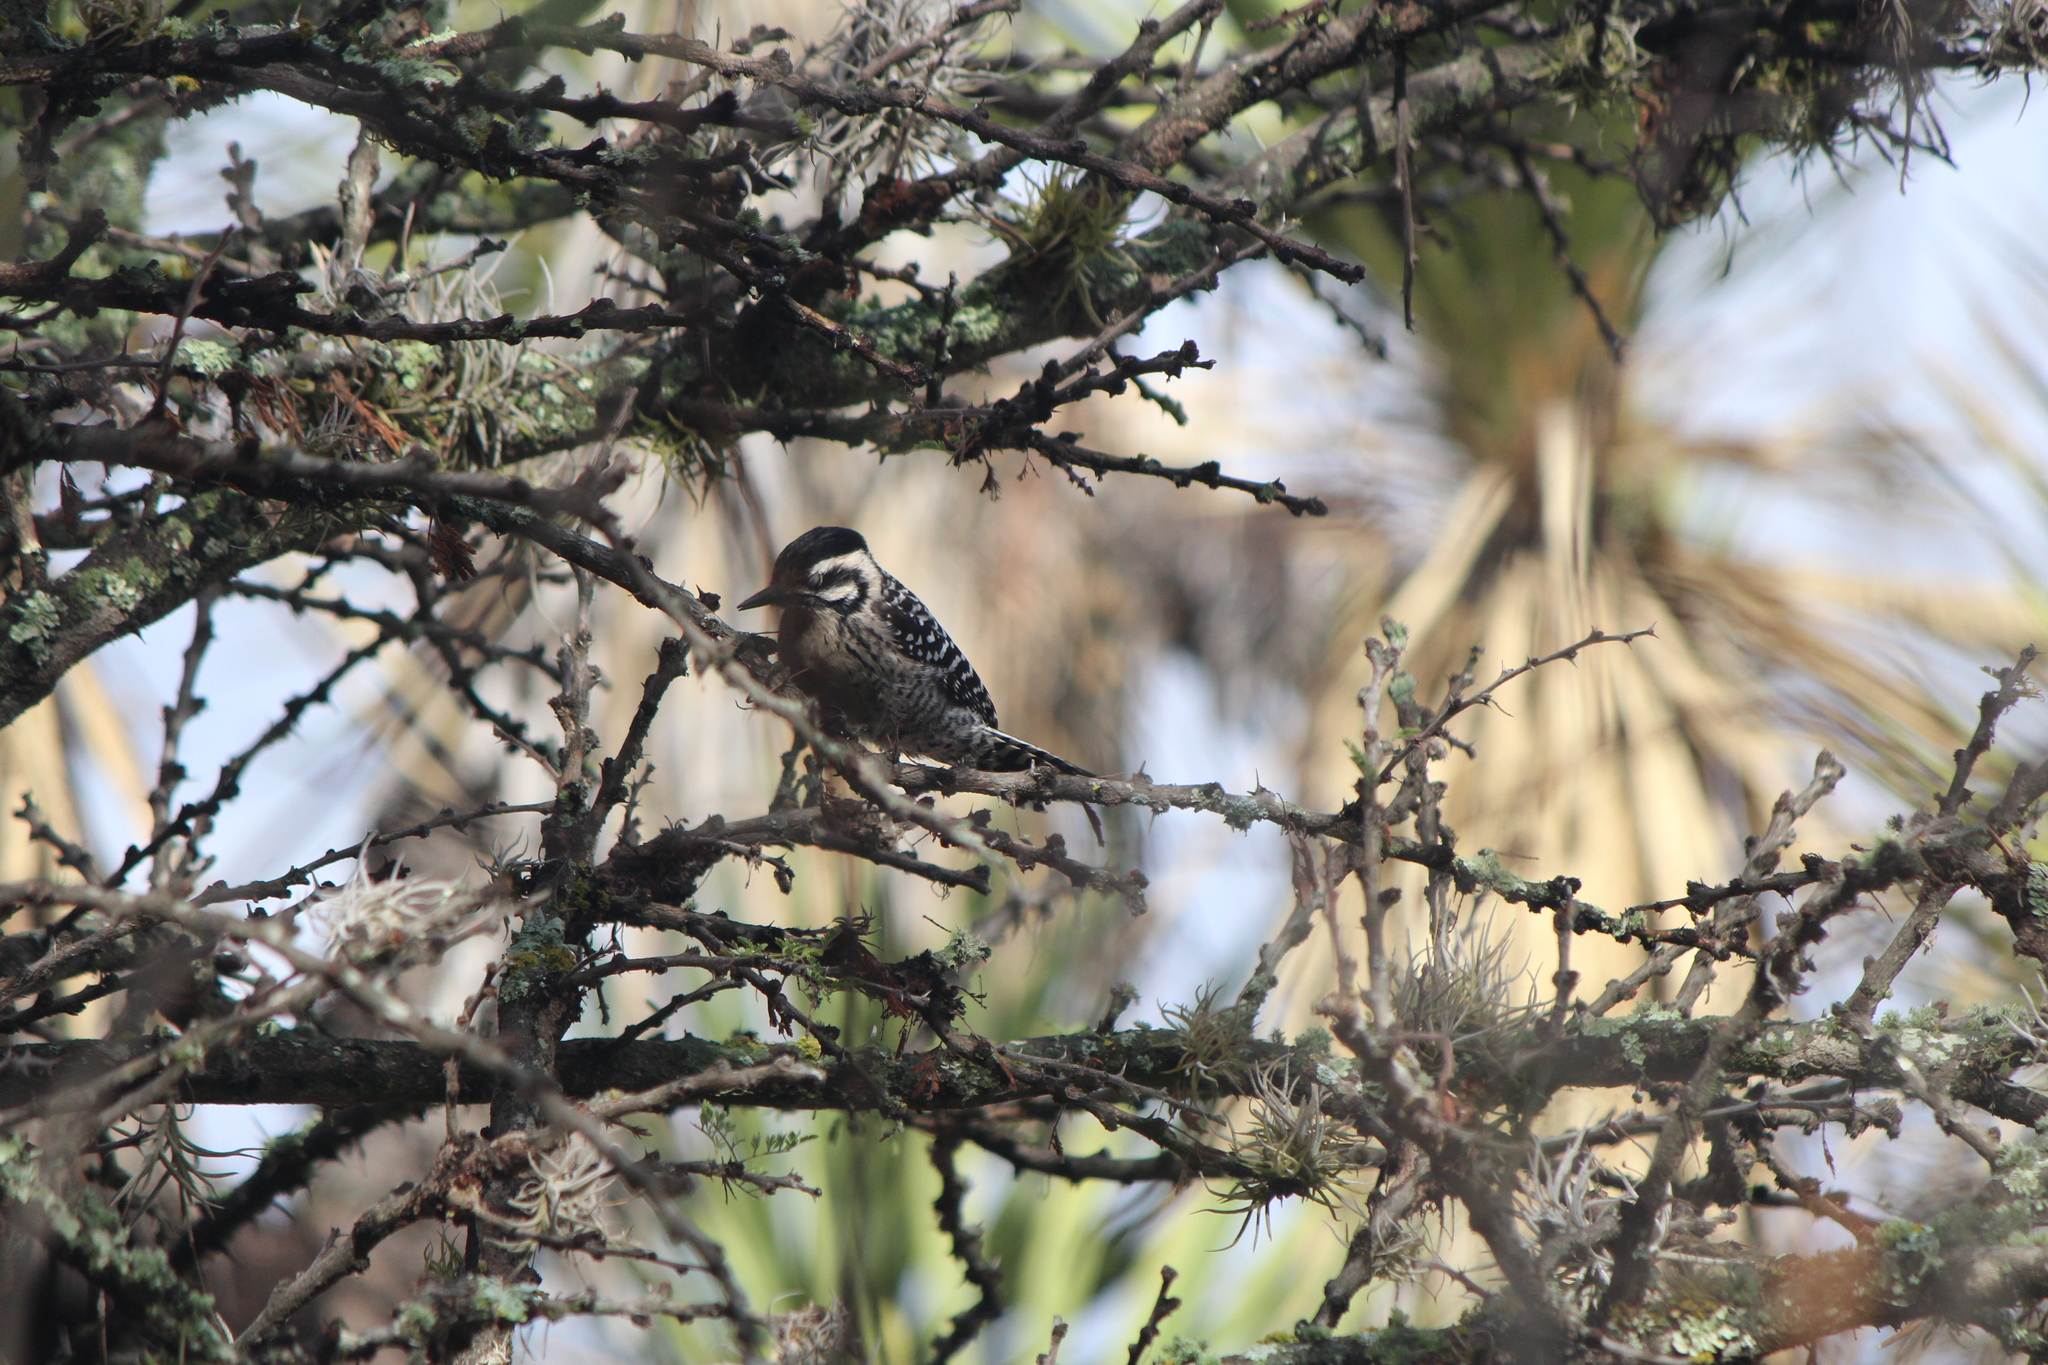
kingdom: Animalia
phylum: Chordata
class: Aves
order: Piciformes
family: Picidae
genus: Dryobates
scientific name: Dryobates scalaris
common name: Ladder-backed woodpecker
